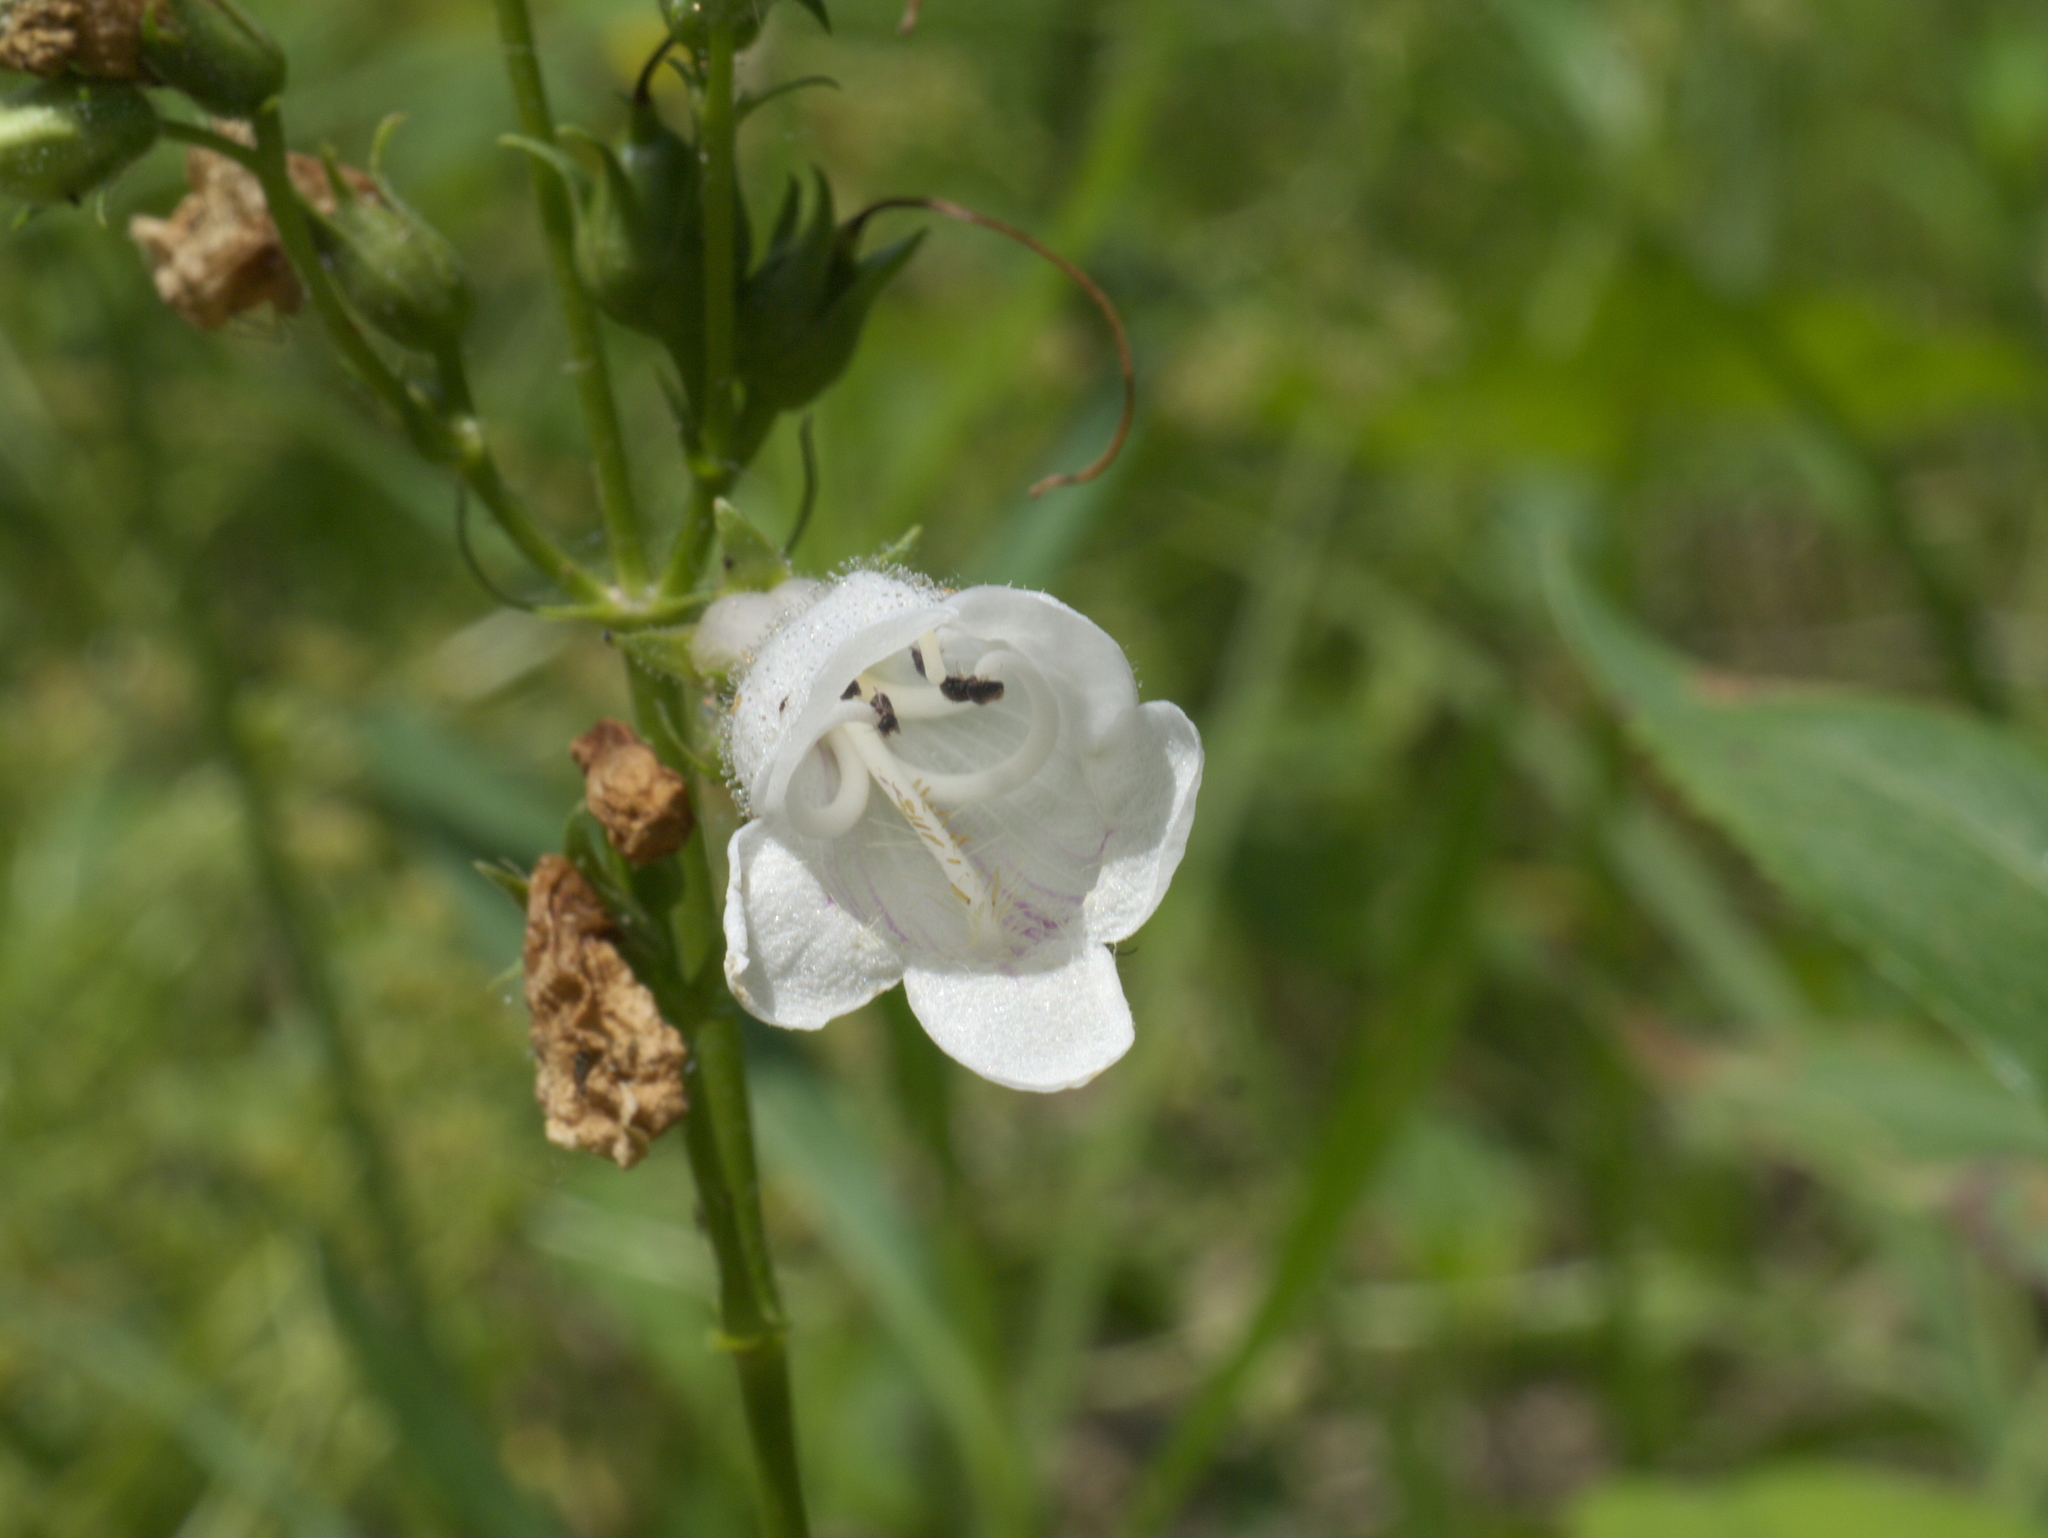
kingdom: Plantae
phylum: Tracheophyta
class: Magnoliopsida
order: Lamiales
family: Plantaginaceae
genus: Penstemon
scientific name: Penstemon digitalis
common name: Foxglove beardtongue
